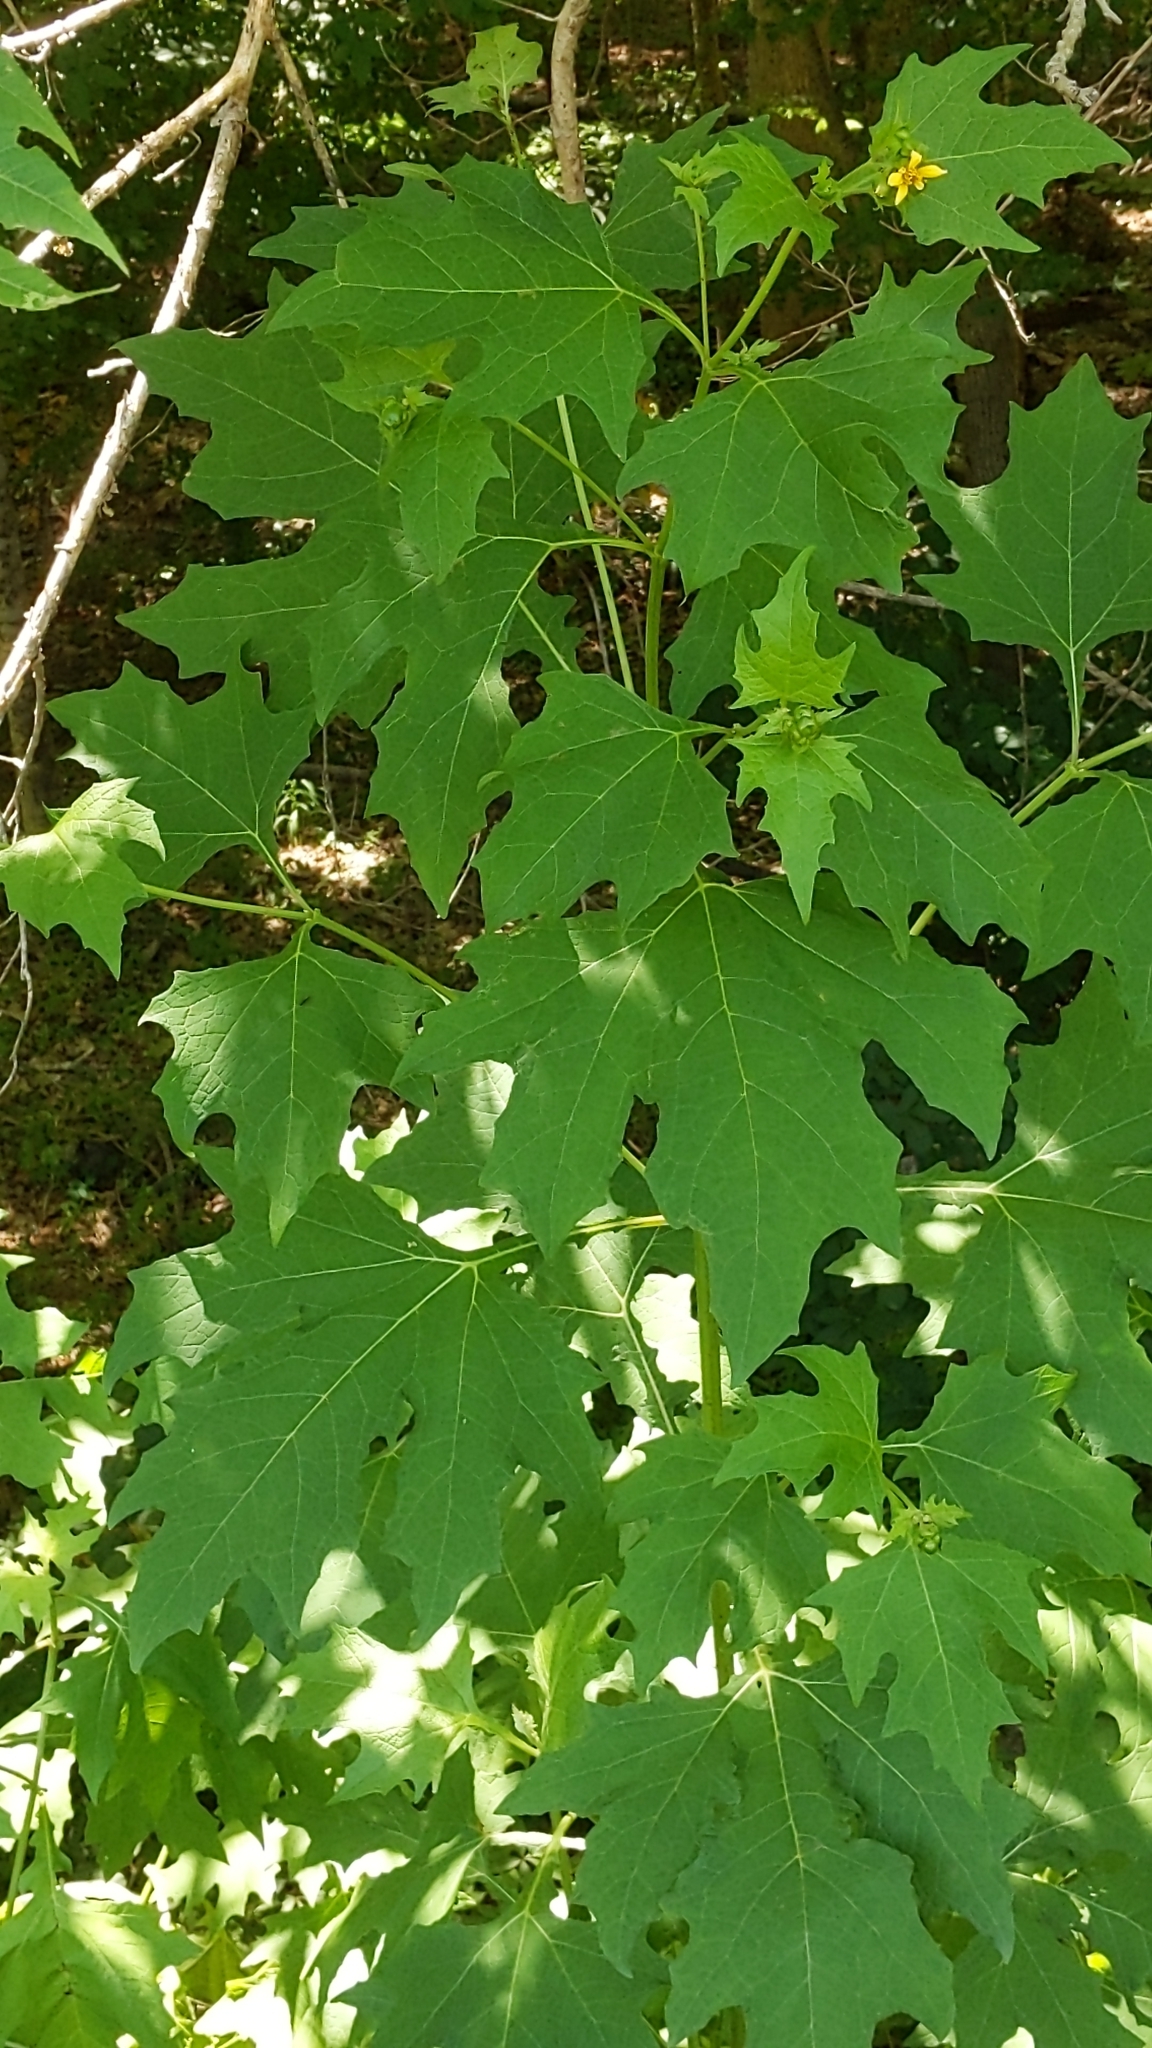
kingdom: Plantae
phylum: Tracheophyta
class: Magnoliopsida
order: Asterales
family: Asteraceae
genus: Smallanthus
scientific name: Smallanthus uvedalia
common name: Bear's-foot
